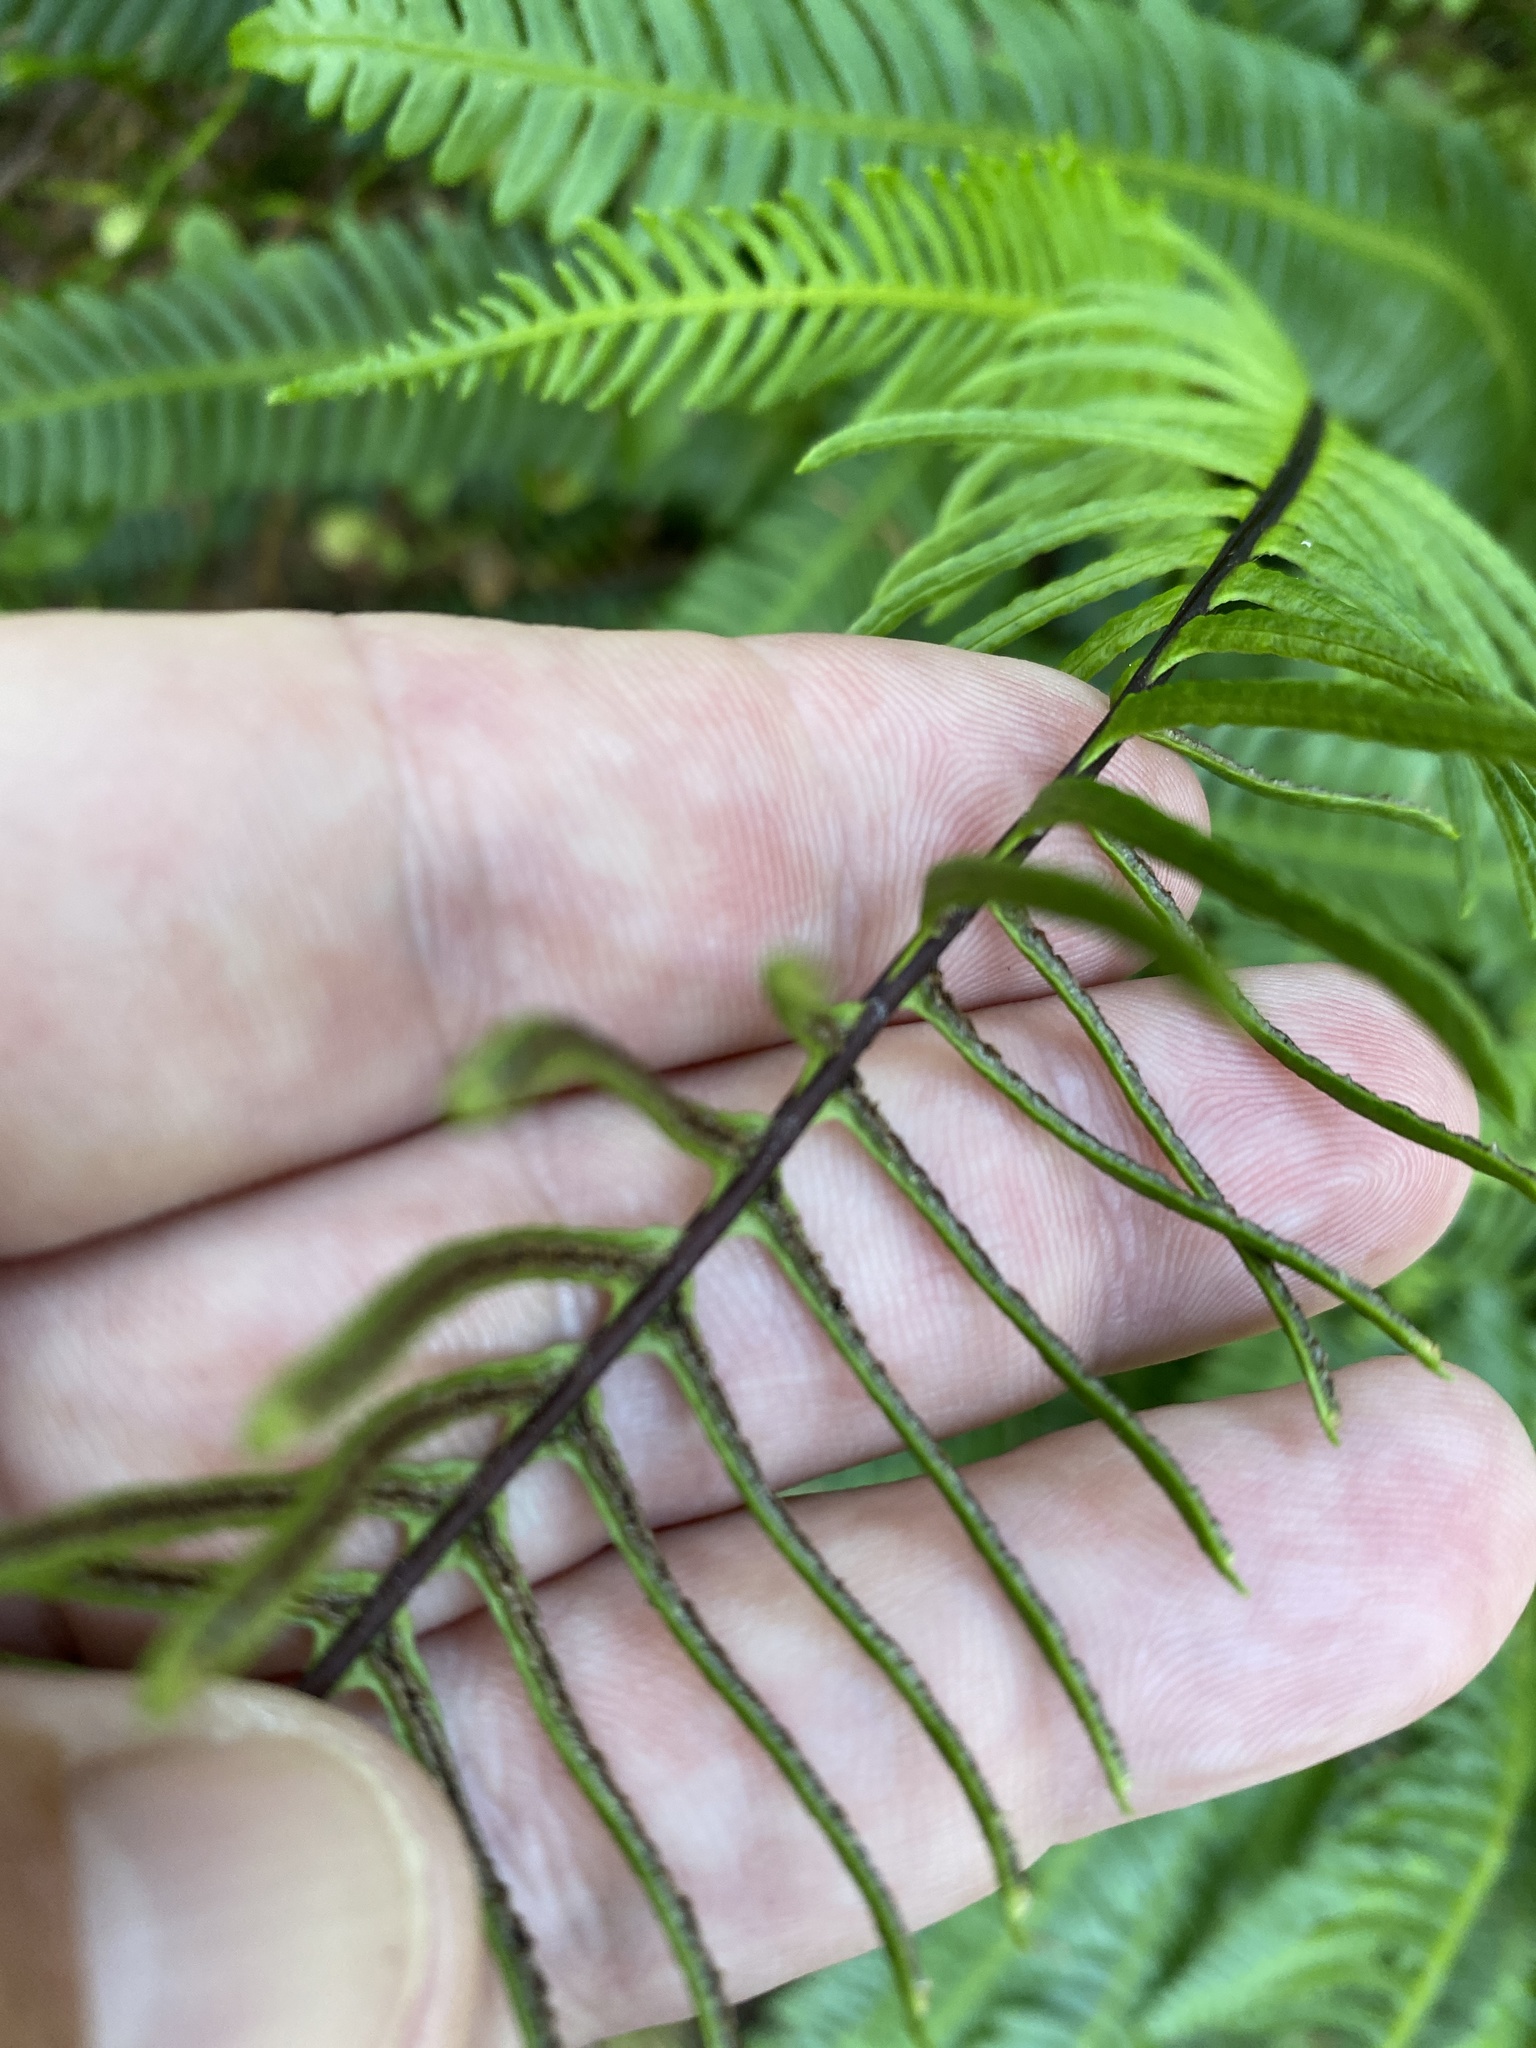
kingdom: Plantae
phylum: Tracheophyta
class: Polypodiopsida
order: Polypodiales
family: Blechnaceae
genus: Struthiopteris
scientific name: Struthiopteris spicant
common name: Deer fern
